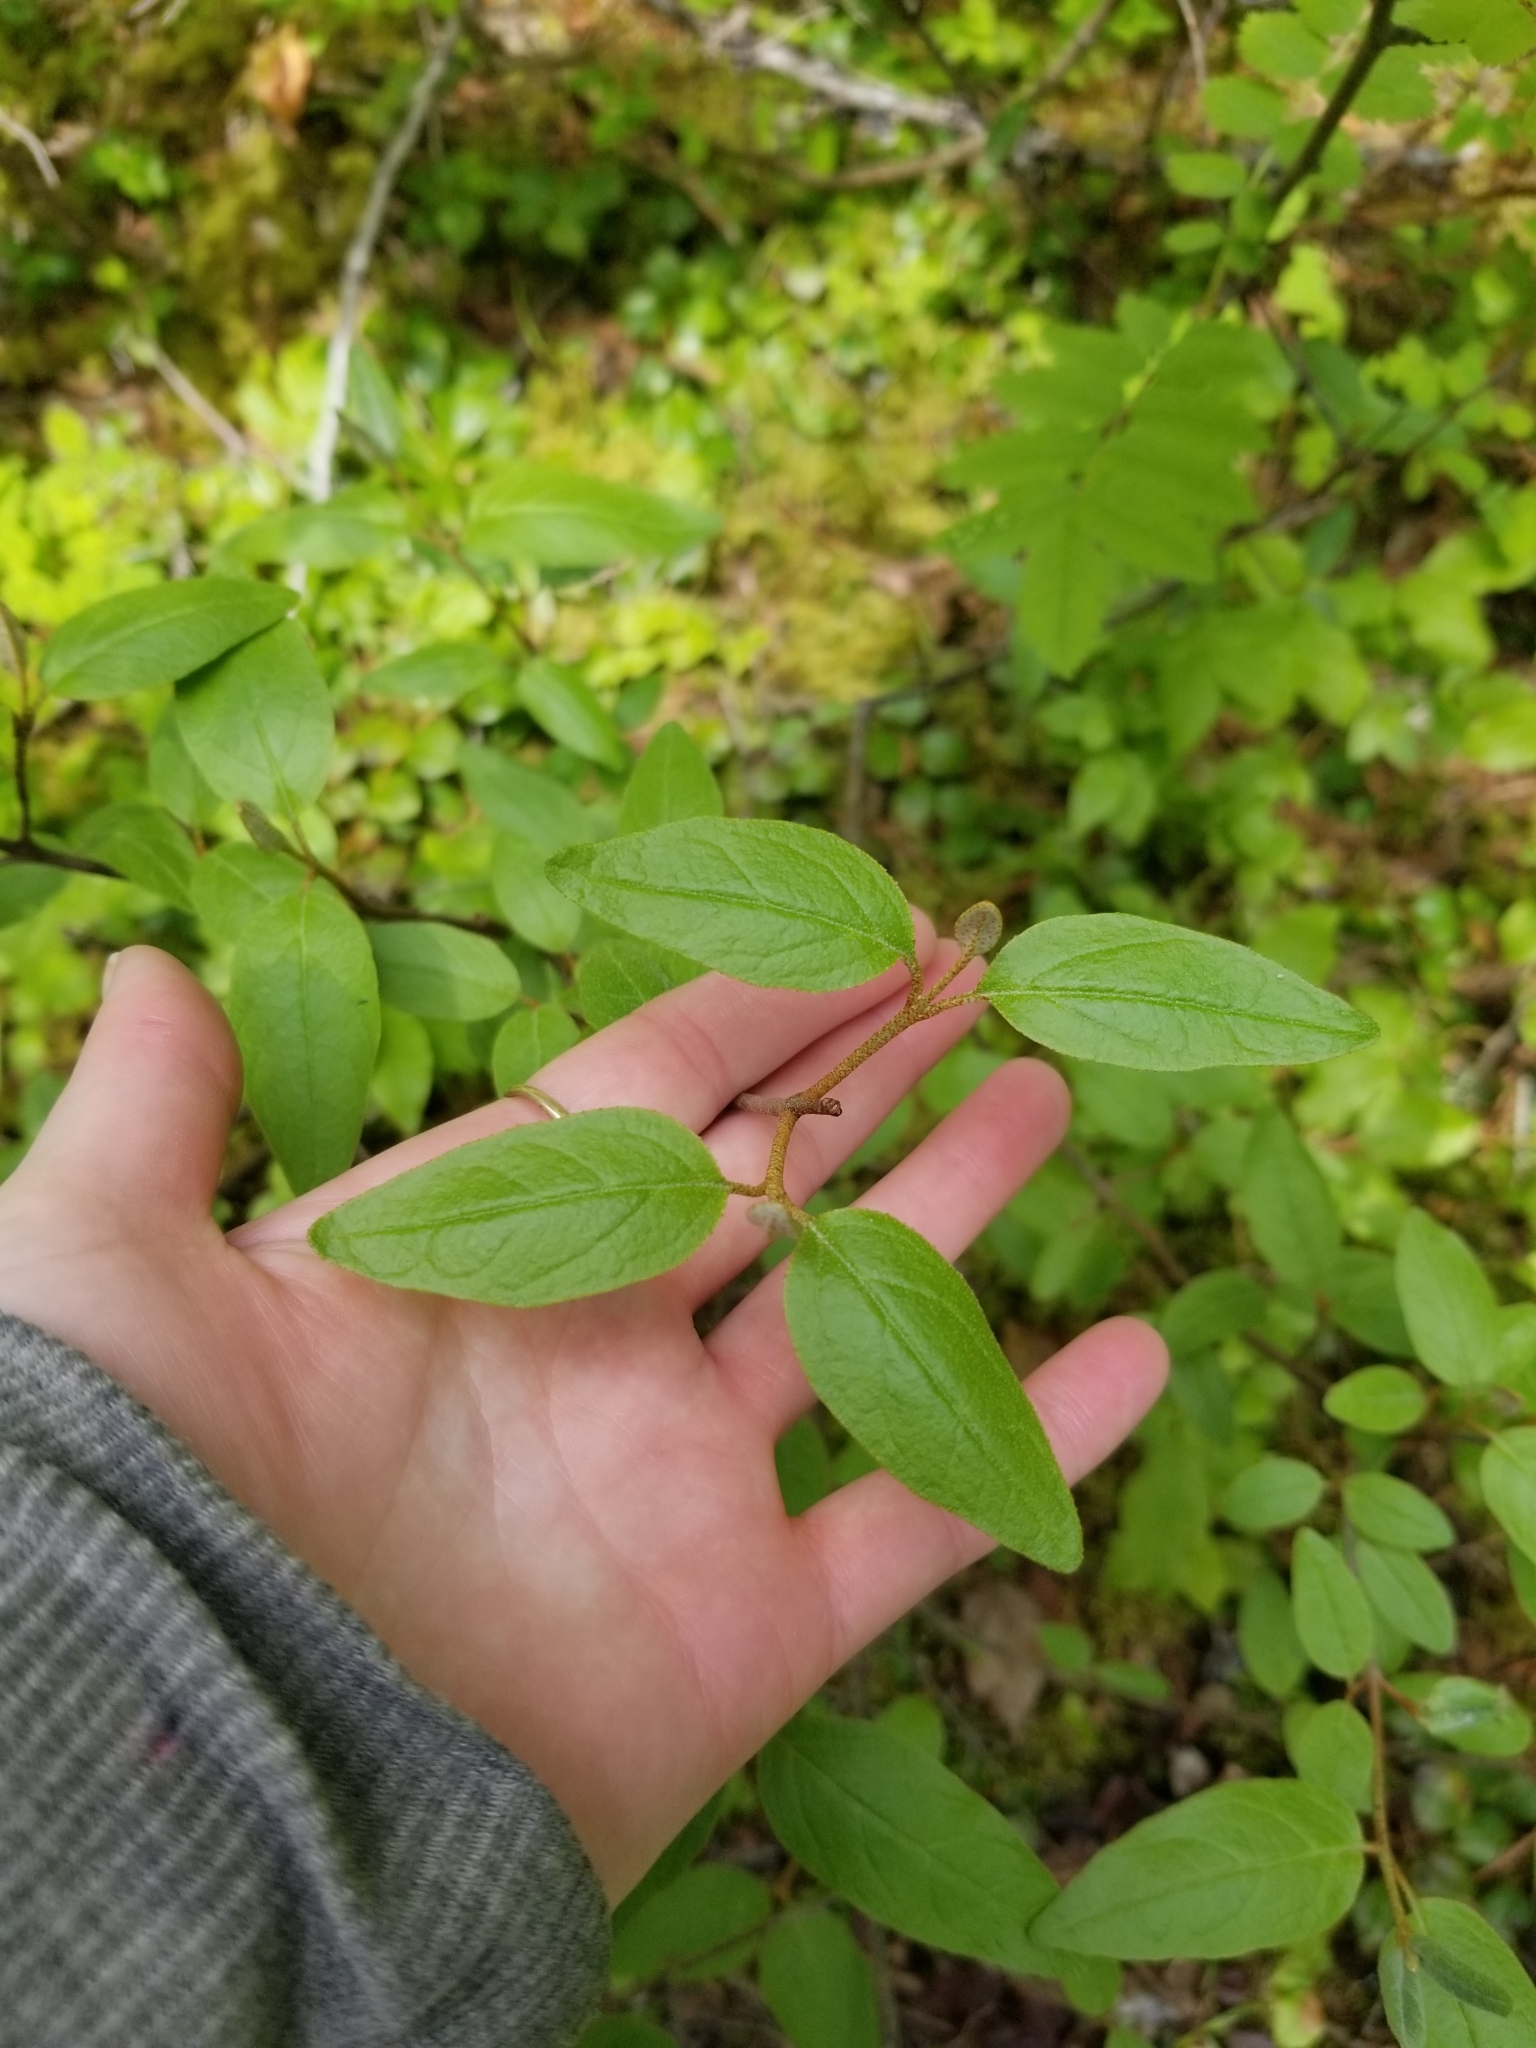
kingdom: Plantae
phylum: Tracheophyta
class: Magnoliopsida
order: Rosales
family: Elaeagnaceae
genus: Shepherdia
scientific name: Shepherdia canadensis
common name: Soapberry
